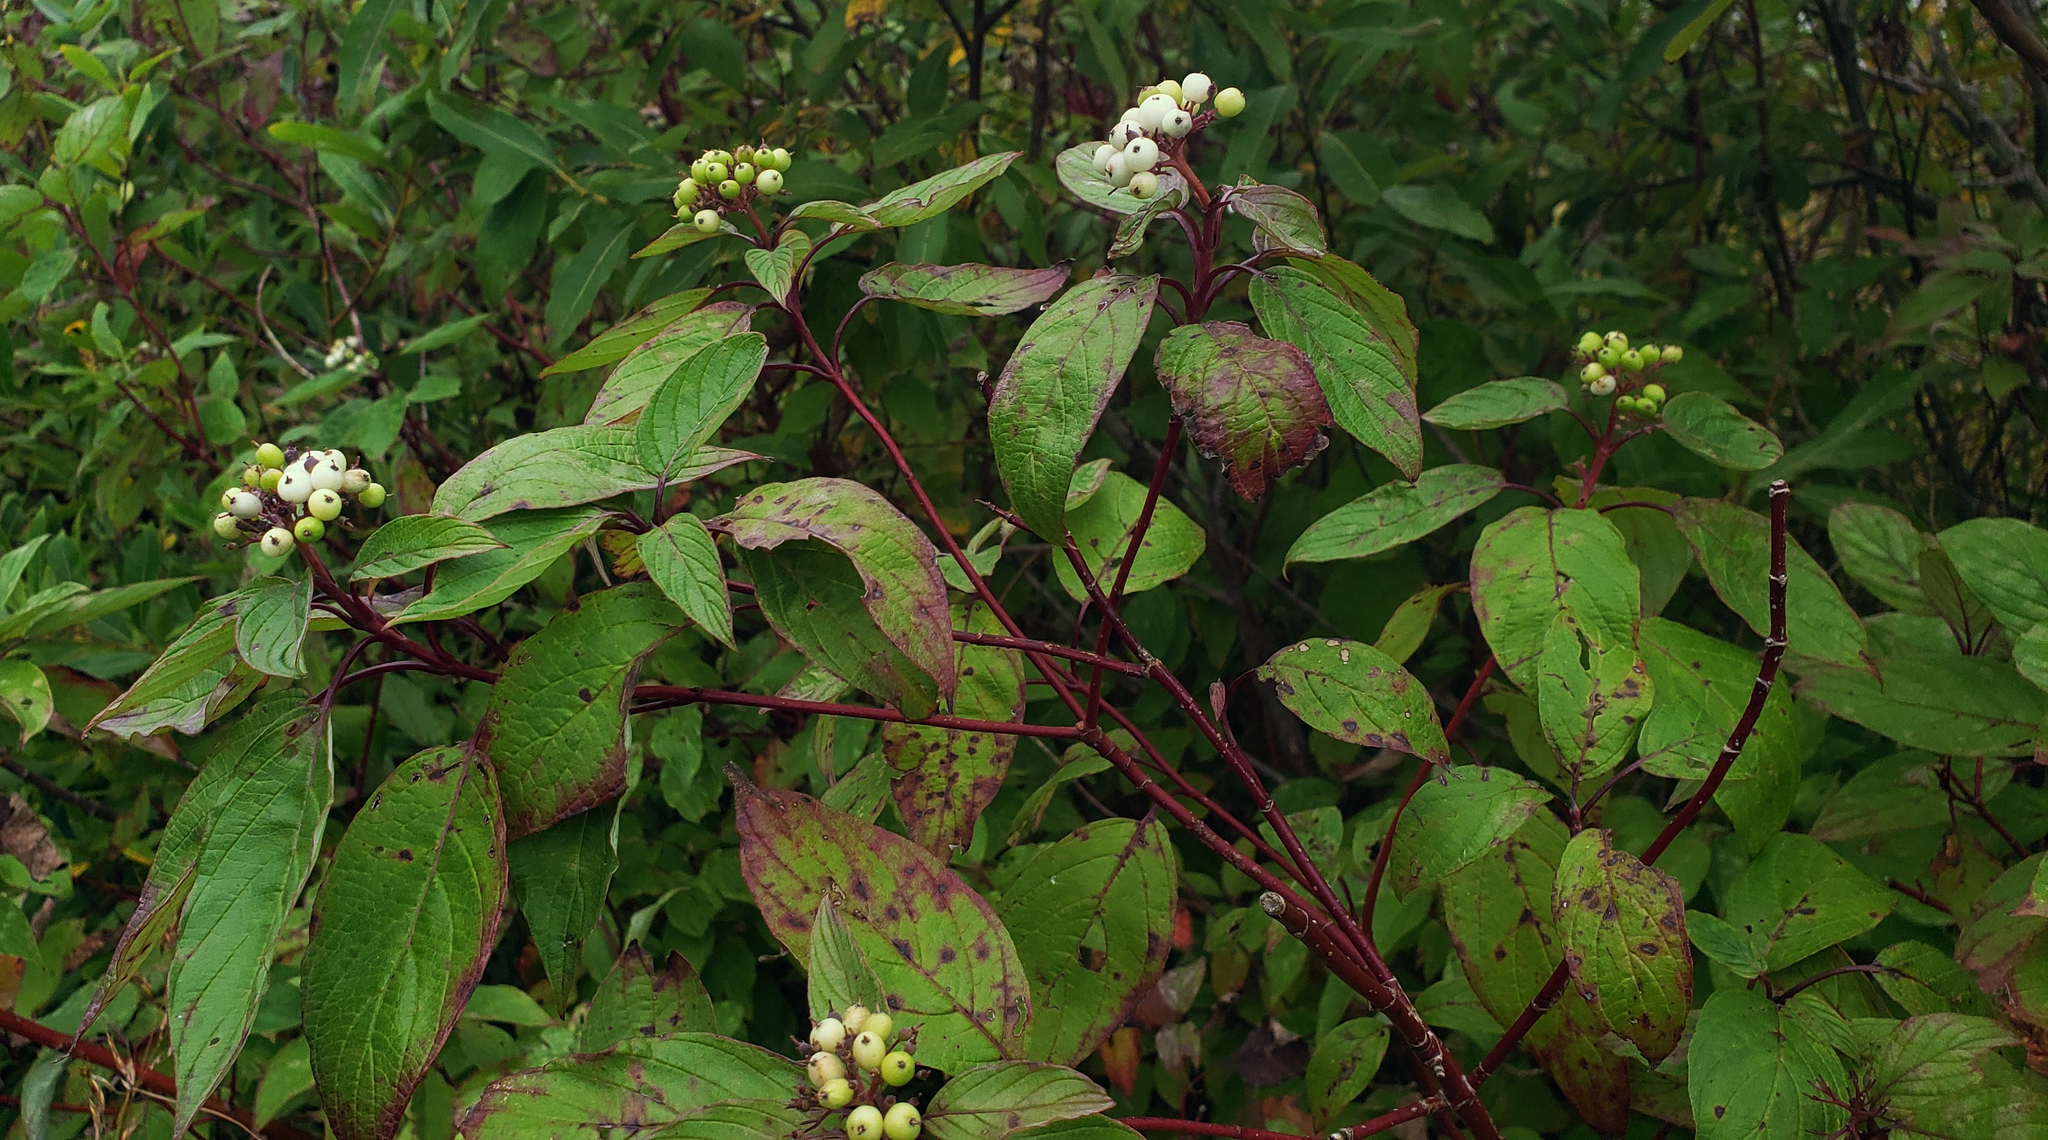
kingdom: Plantae
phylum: Tracheophyta
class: Magnoliopsida
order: Cornales
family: Cornaceae
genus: Cornus
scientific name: Cornus sericea
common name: Red-osier dogwood
